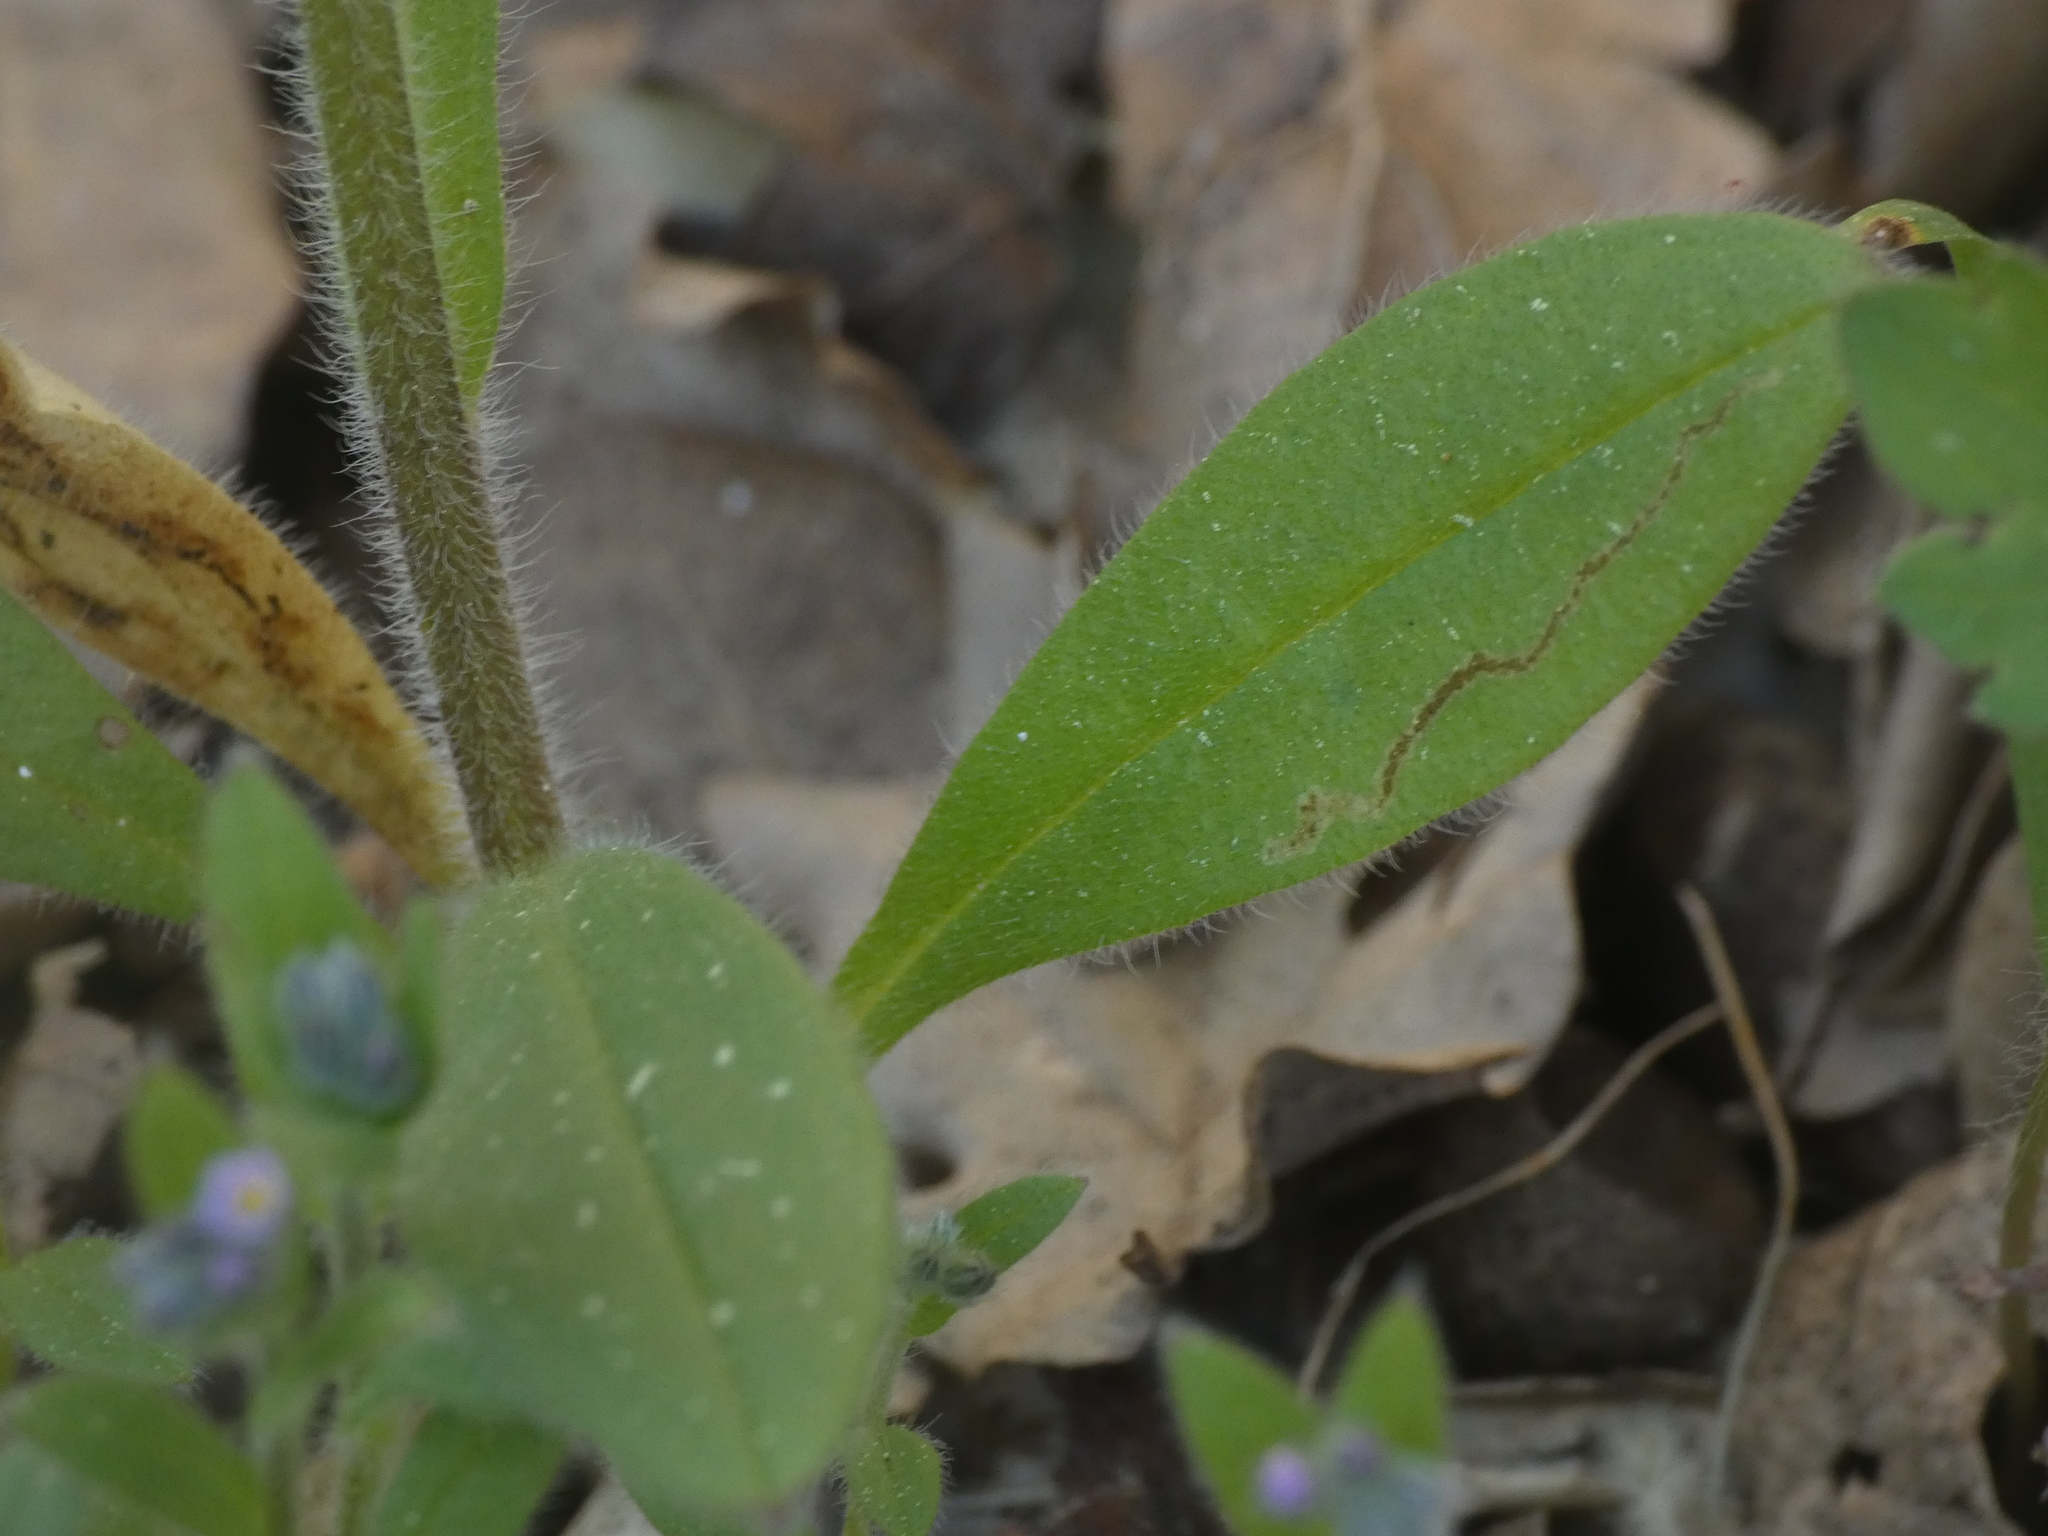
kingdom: Plantae
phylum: Tracheophyta
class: Magnoliopsida
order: Boraginales
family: Boraginaceae
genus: Myosotis
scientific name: Myosotis arvensis
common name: Field forget-me-not
